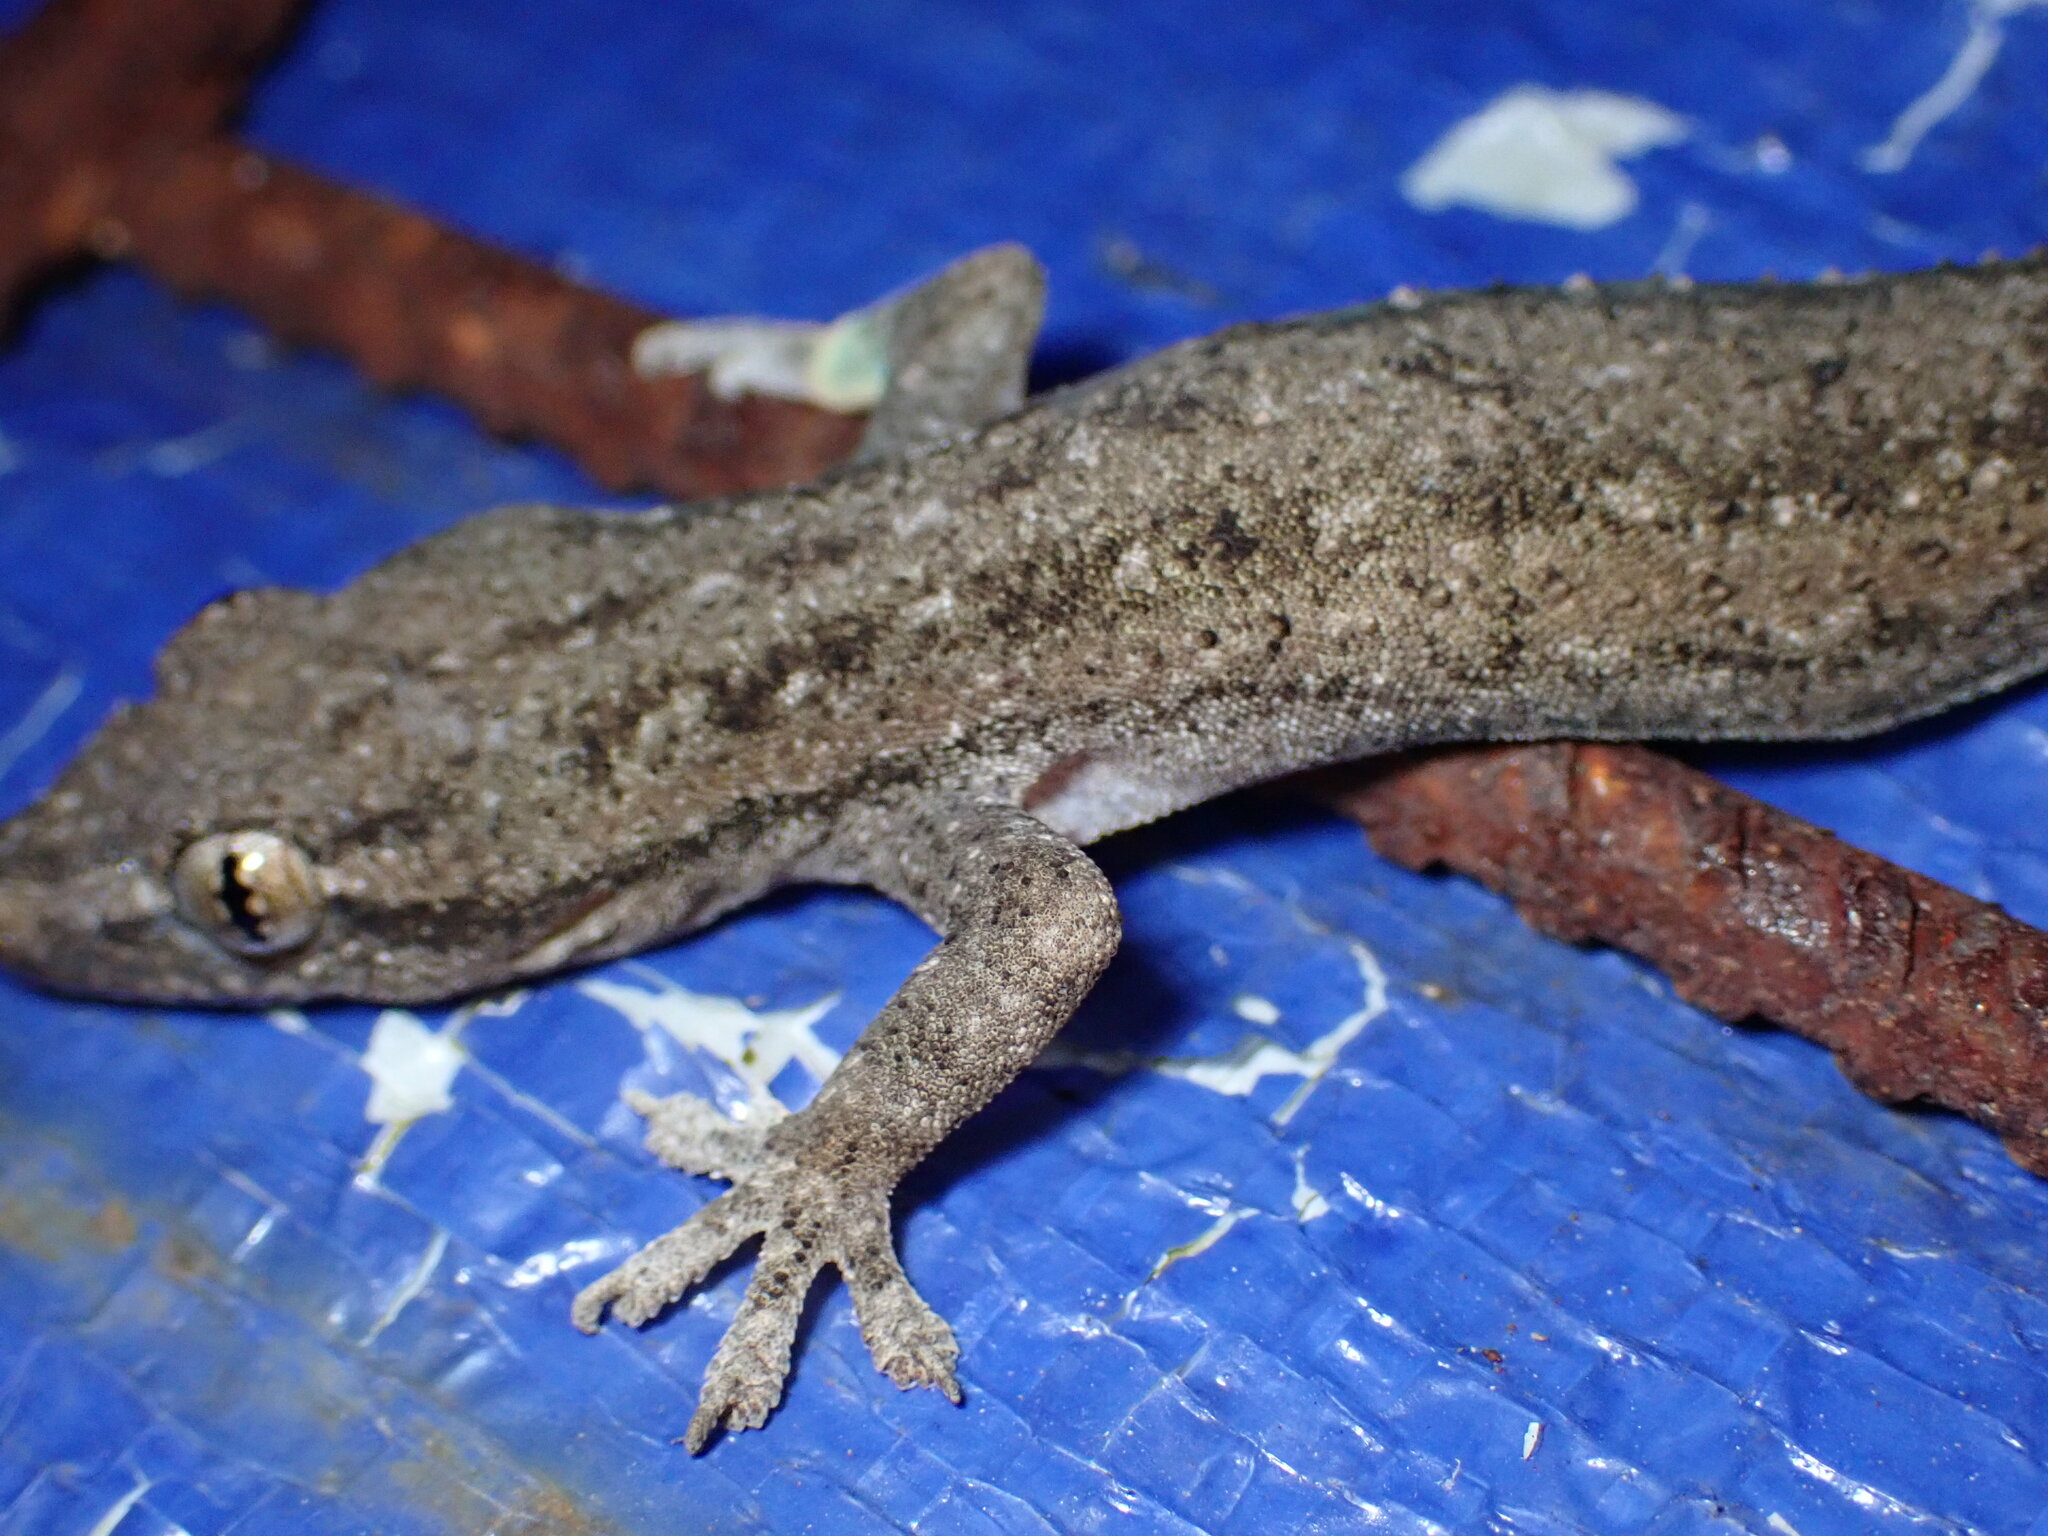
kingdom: Animalia
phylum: Chordata
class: Squamata
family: Gekkonidae
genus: Hemidactylus
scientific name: Hemidactylus frenatus
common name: Common house gecko
